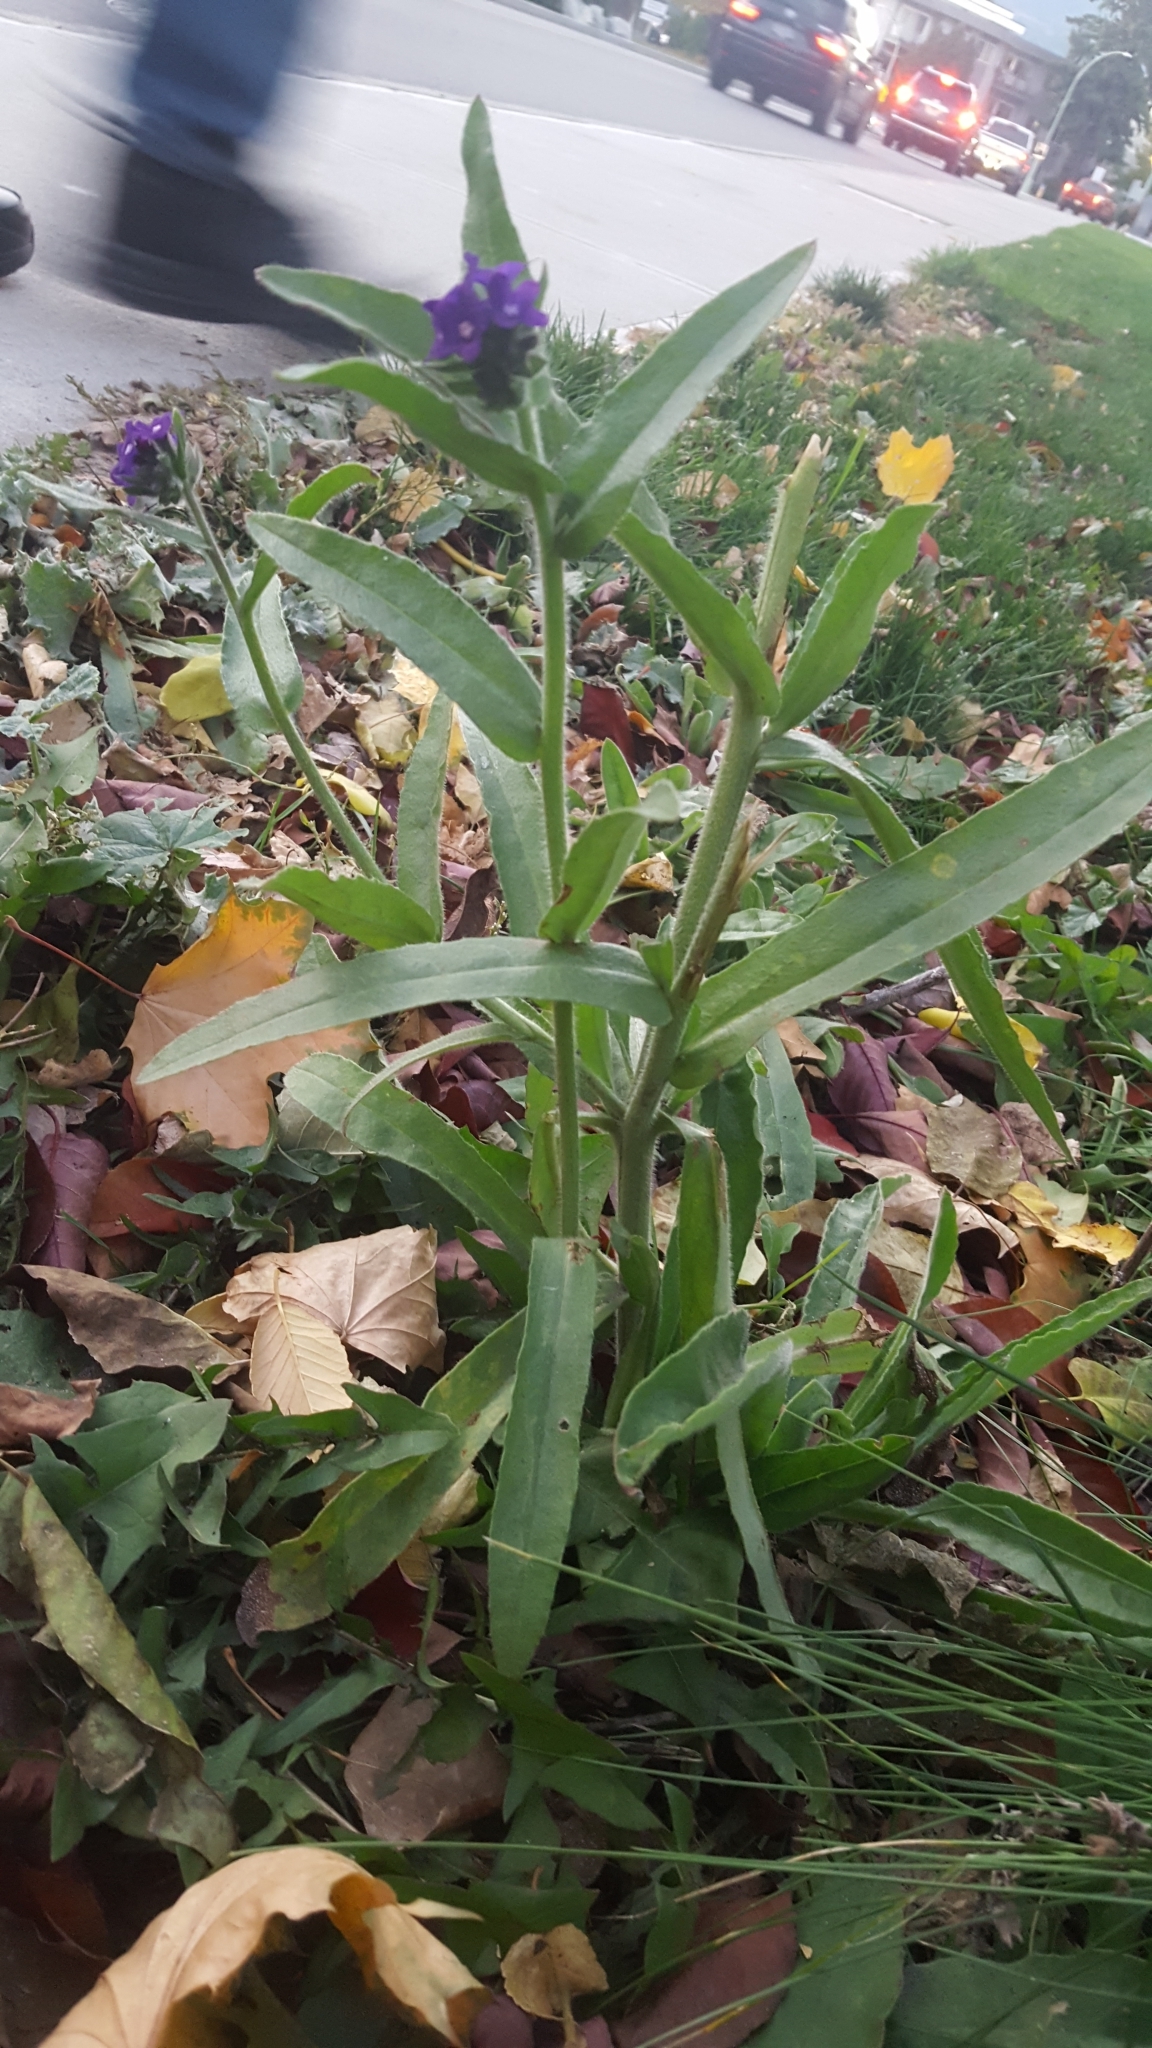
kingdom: Plantae
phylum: Tracheophyta
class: Magnoliopsida
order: Boraginales
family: Boraginaceae
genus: Anchusa
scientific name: Anchusa officinalis
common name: Alkanet
